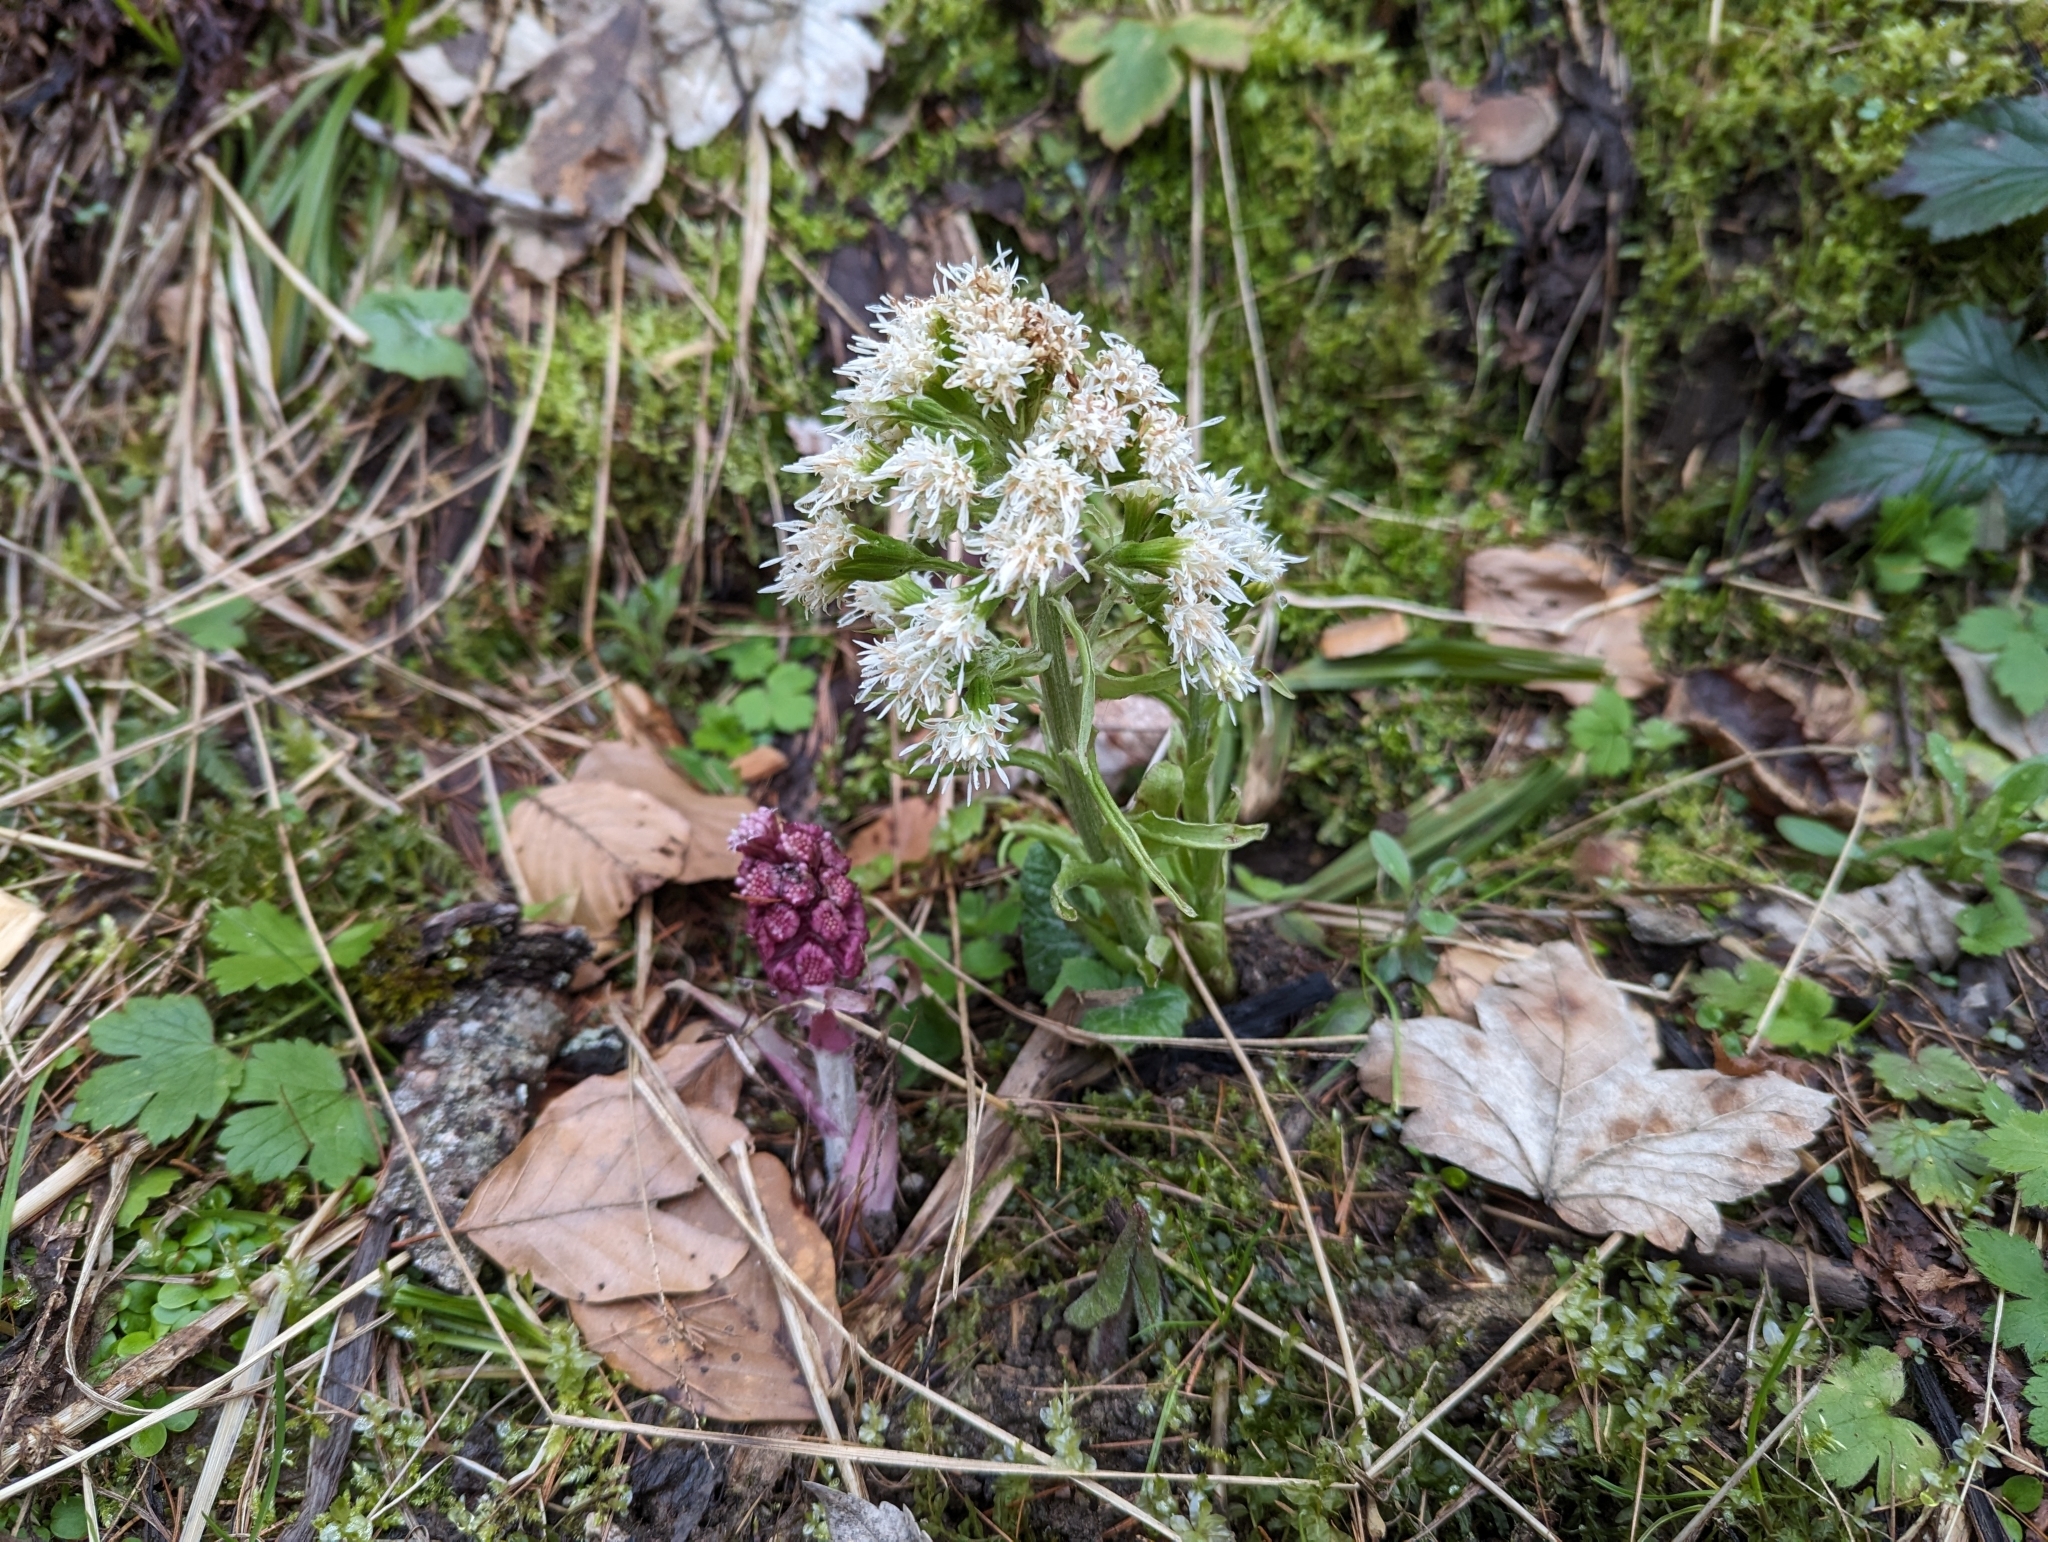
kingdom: Plantae
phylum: Tracheophyta
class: Magnoliopsida
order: Asterales
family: Asteraceae
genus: Petasites
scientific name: Petasites hybridus
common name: Butterbur
